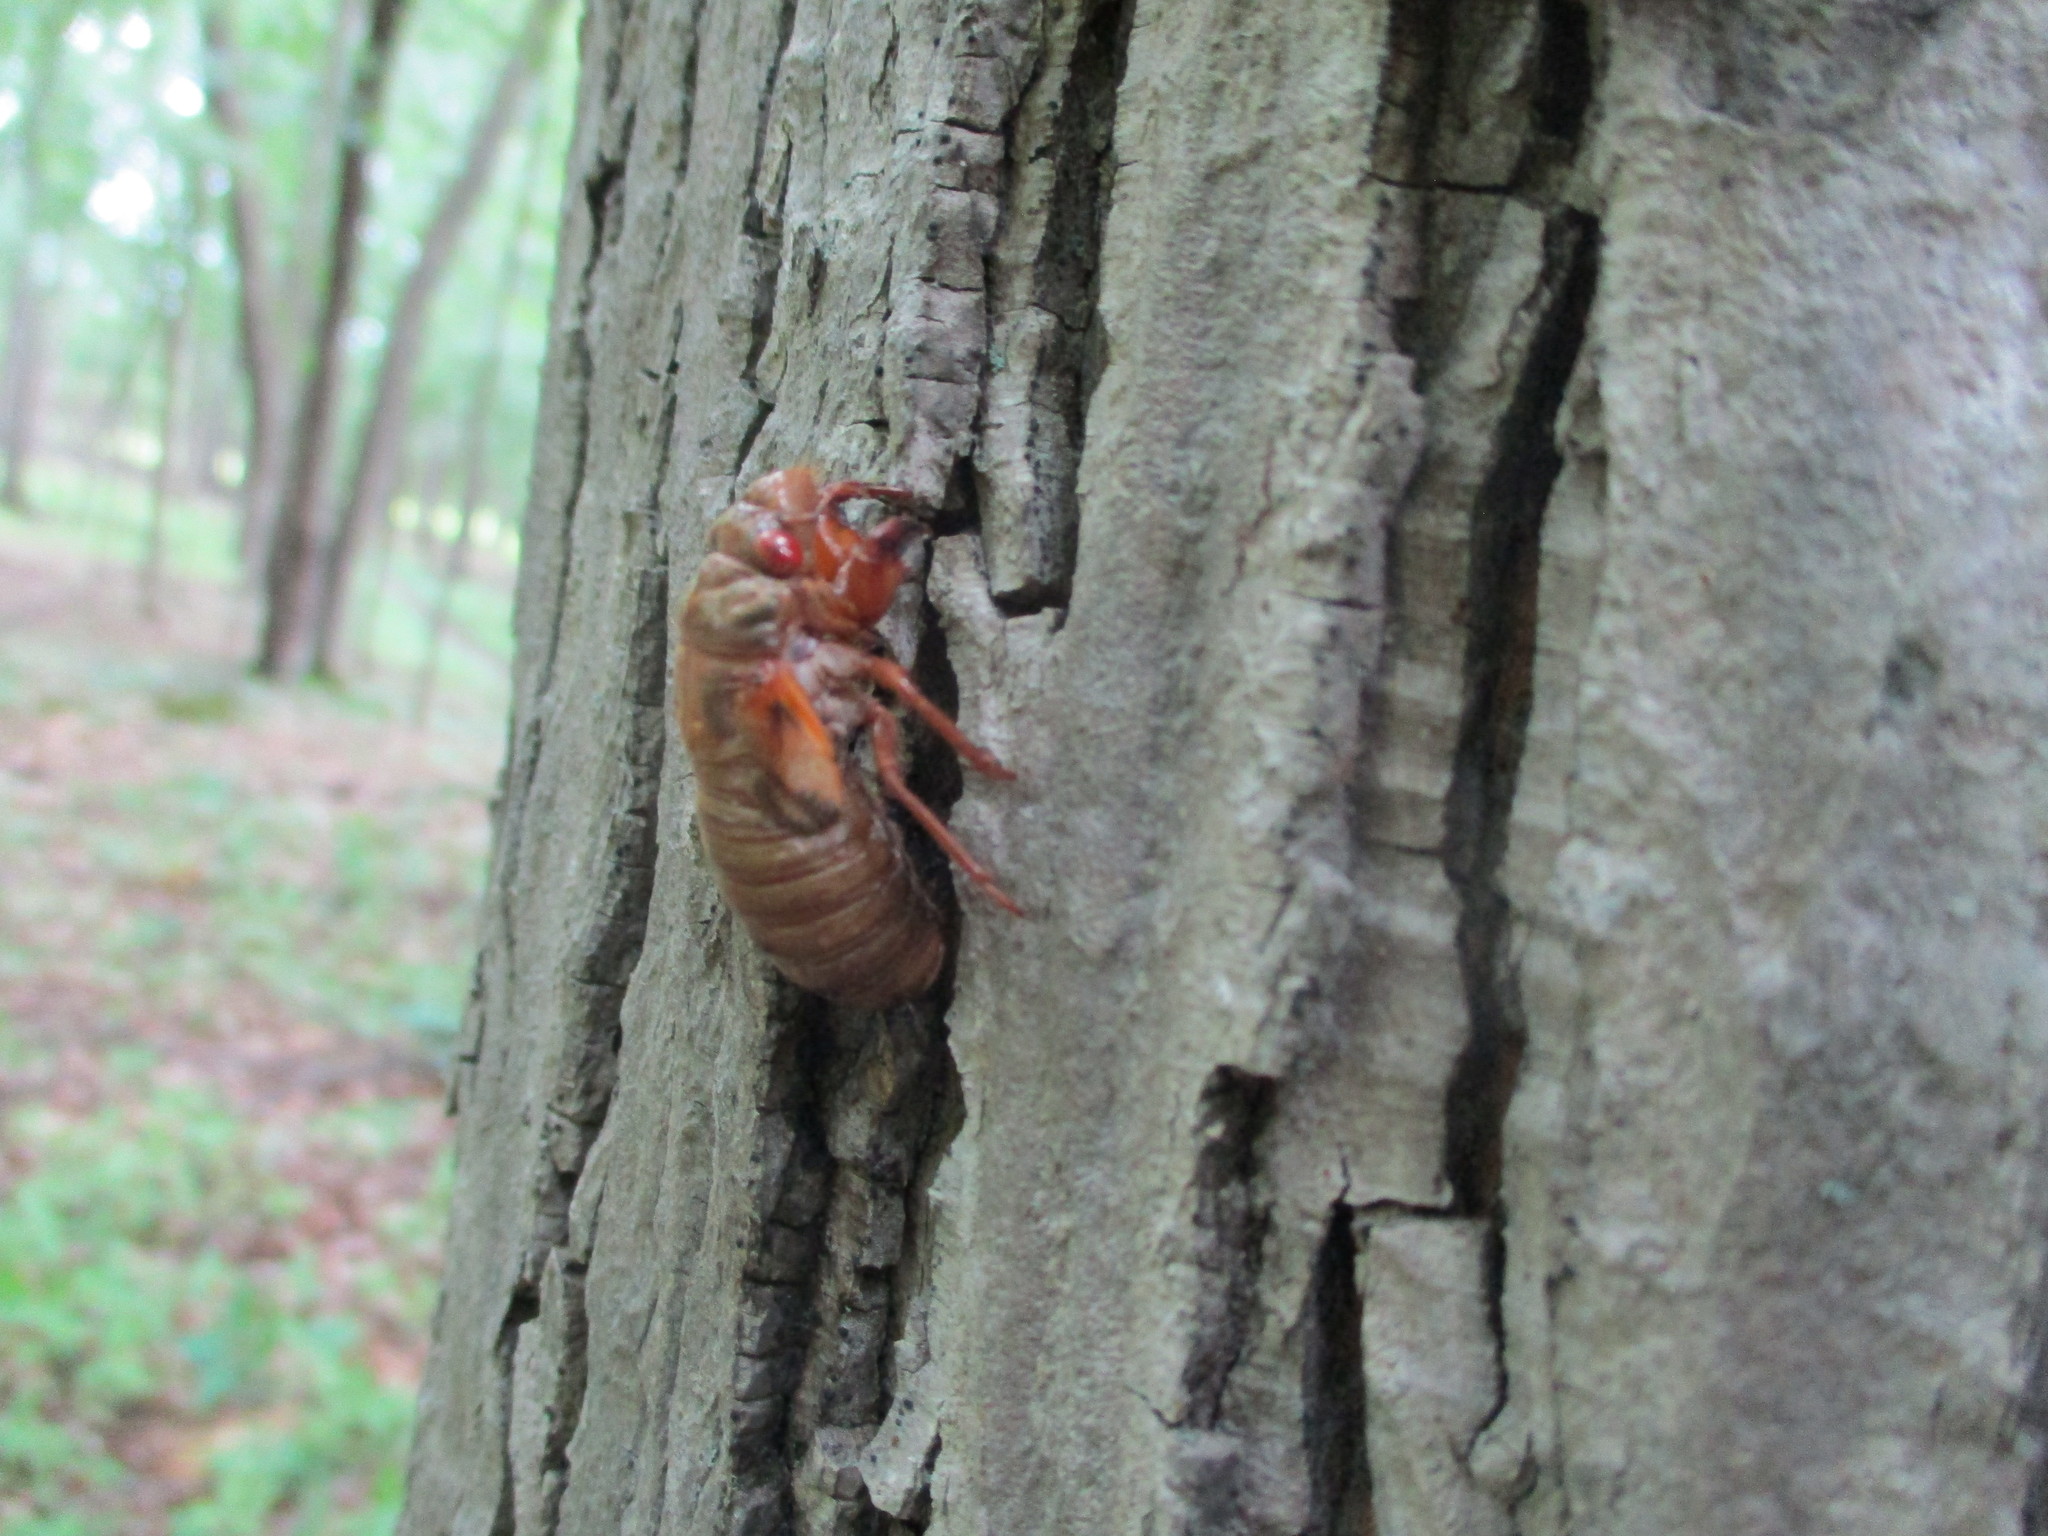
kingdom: Animalia
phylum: Arthropoda
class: Insecta
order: Hemiptera
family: Cicadidae
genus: Magicicada
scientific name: Magicicada
